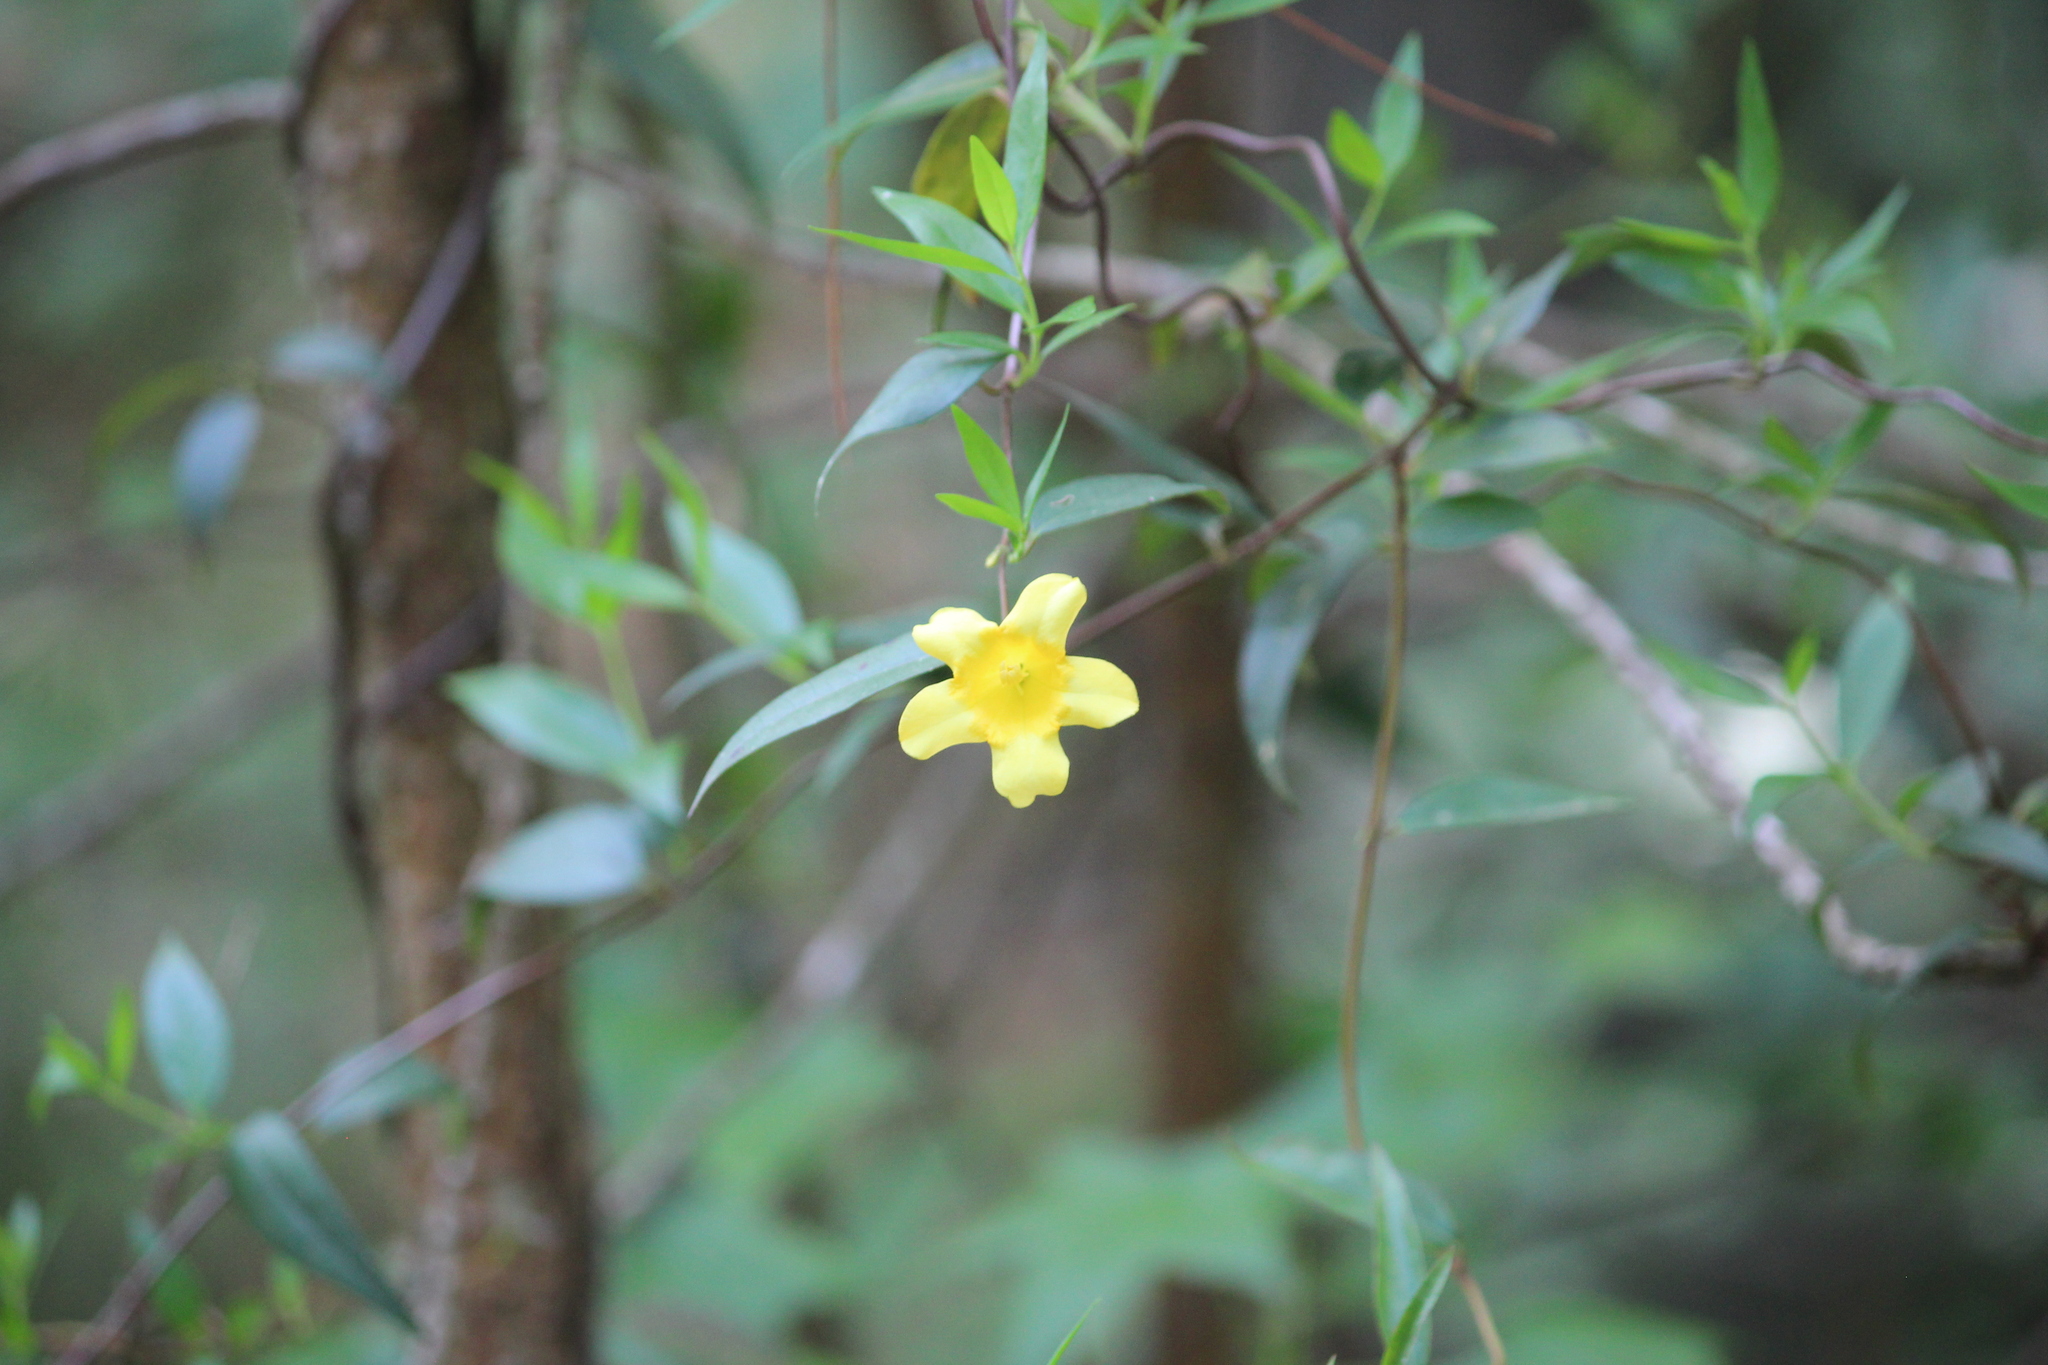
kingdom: Plantae
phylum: Tracheophyta
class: Magnoliopsida
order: Gentianales
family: Gelsemiaceae
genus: Gelsemium
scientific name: Gelsemium sempervirens
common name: Carolina-jasmine
